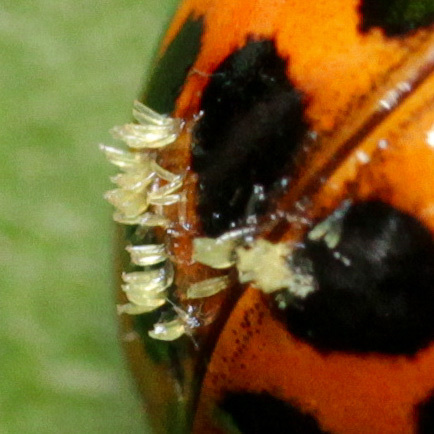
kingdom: Fungi
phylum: Ascomycota
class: Laboulbeniomycetes
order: Laboulbeniales
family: Laboulbeniaceae
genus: Hesperomyces
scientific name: Hesperomyces harmoniae
